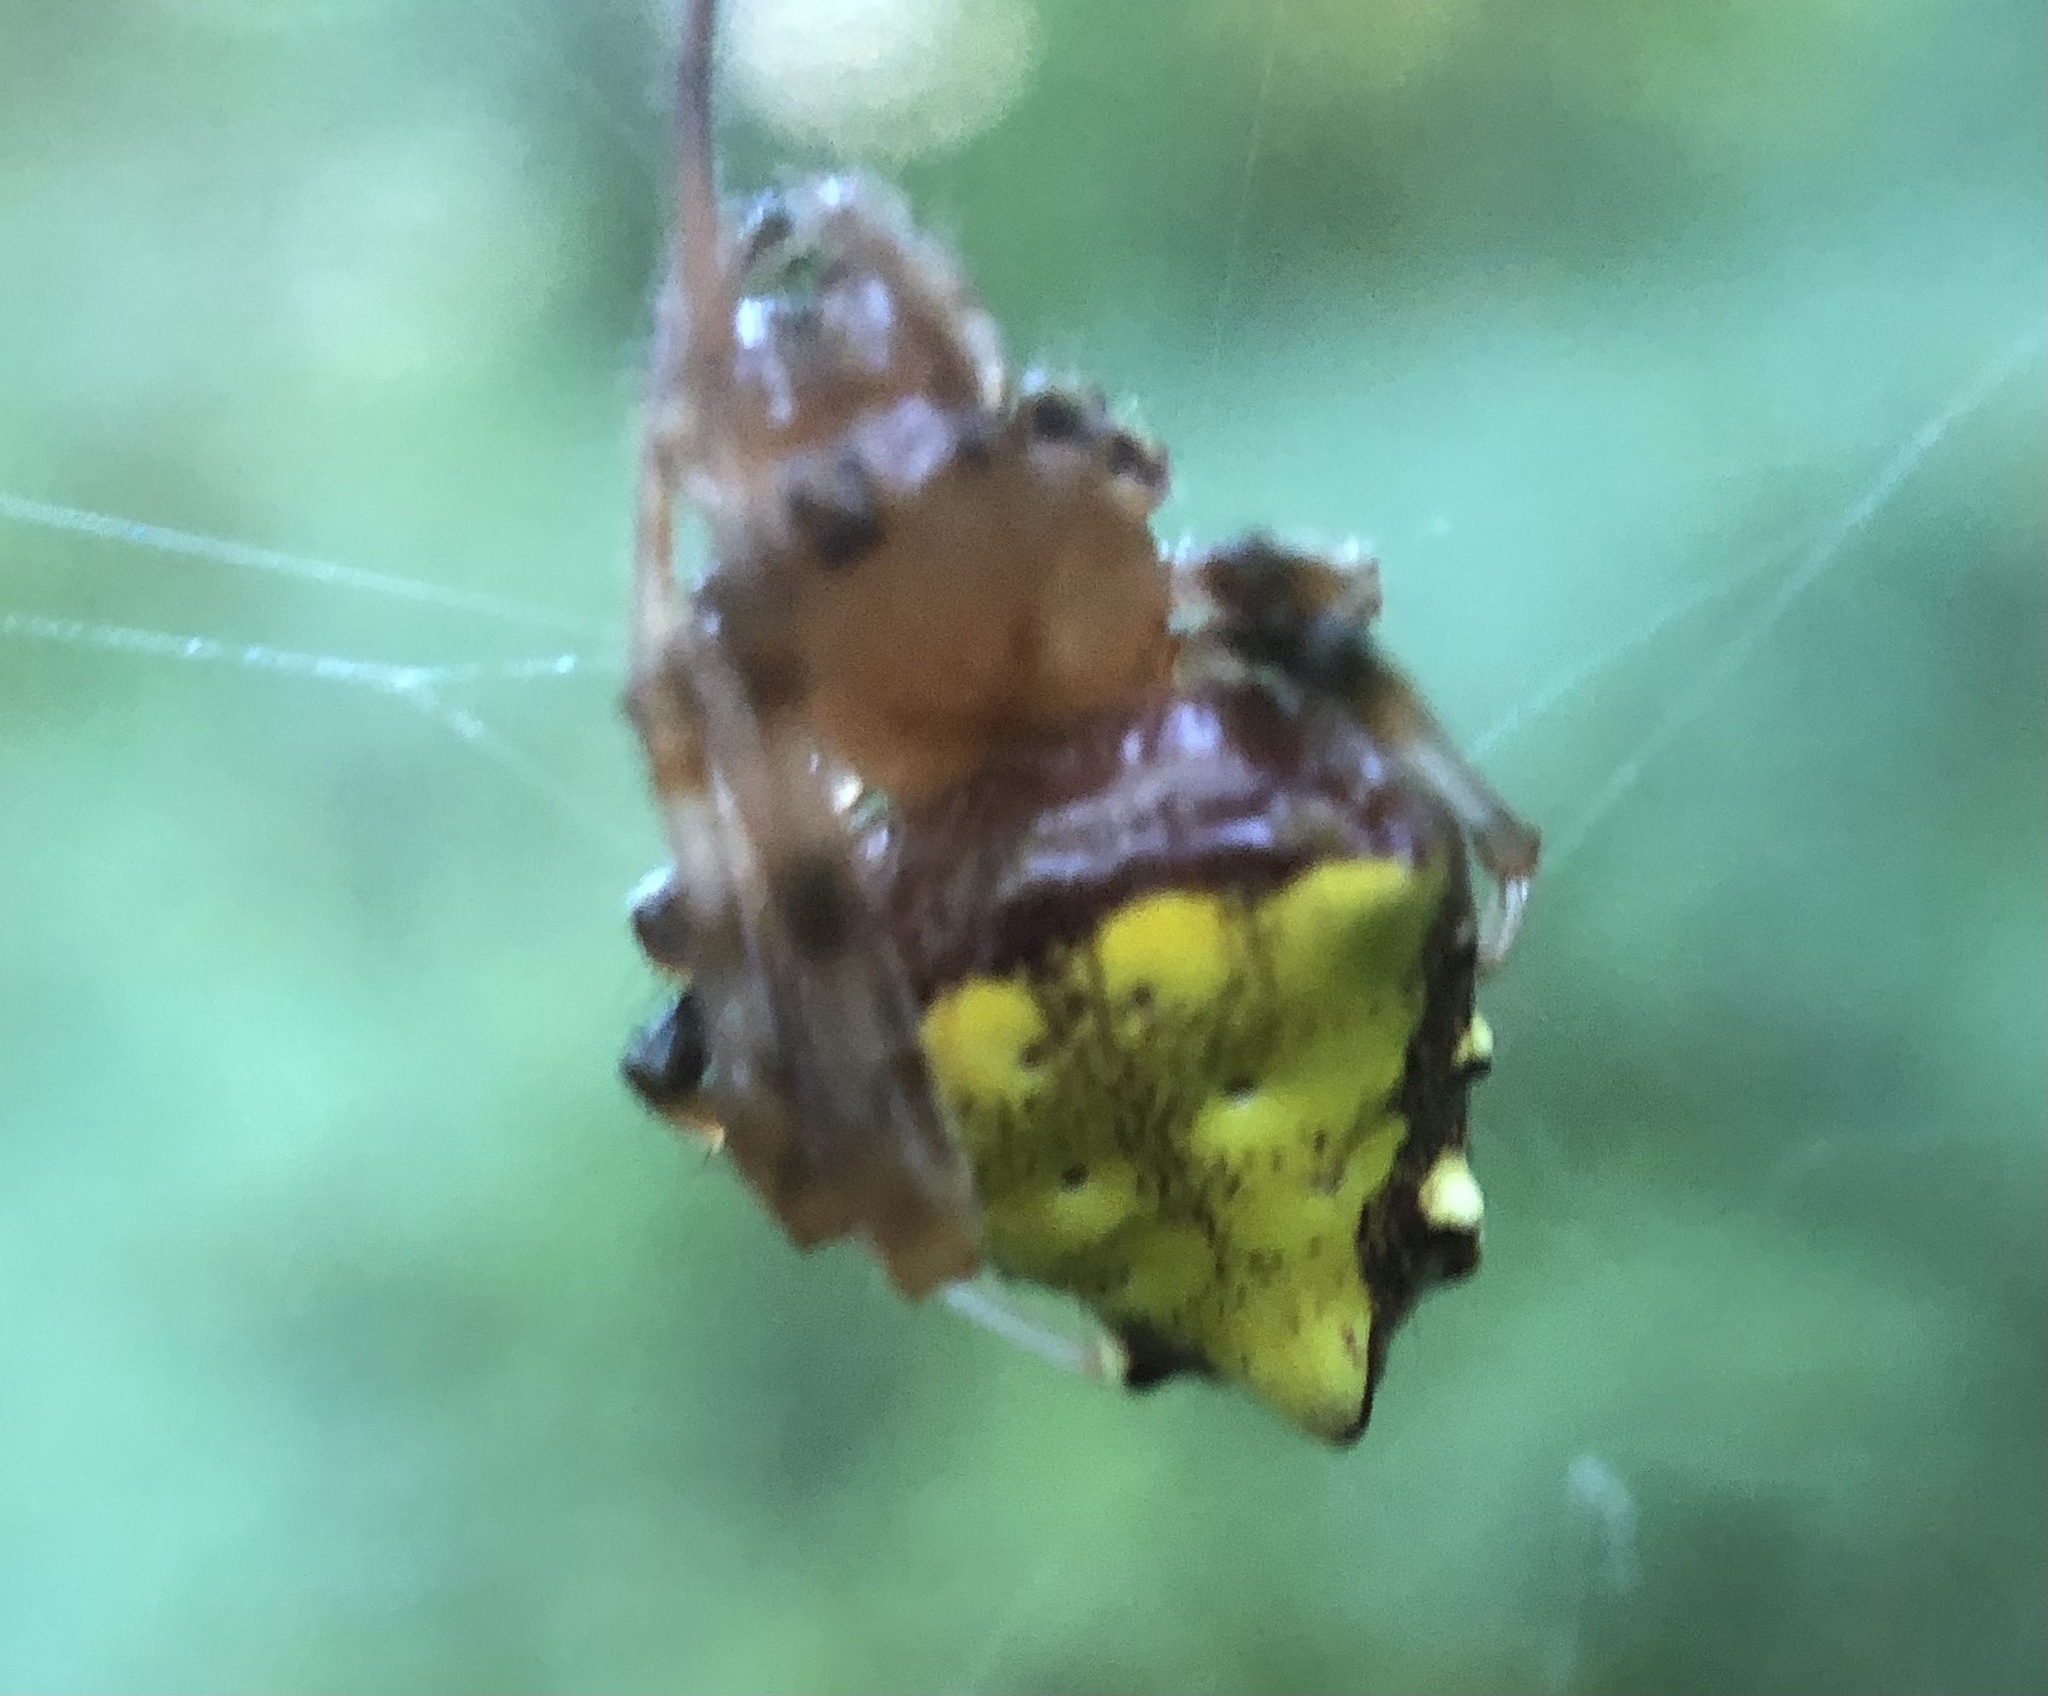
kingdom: Animalia
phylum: Arthropoda
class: Arachnida
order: Araneae
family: Araneidae
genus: Verrucosa
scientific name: Verrucosa arenata
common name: Orb weavers
